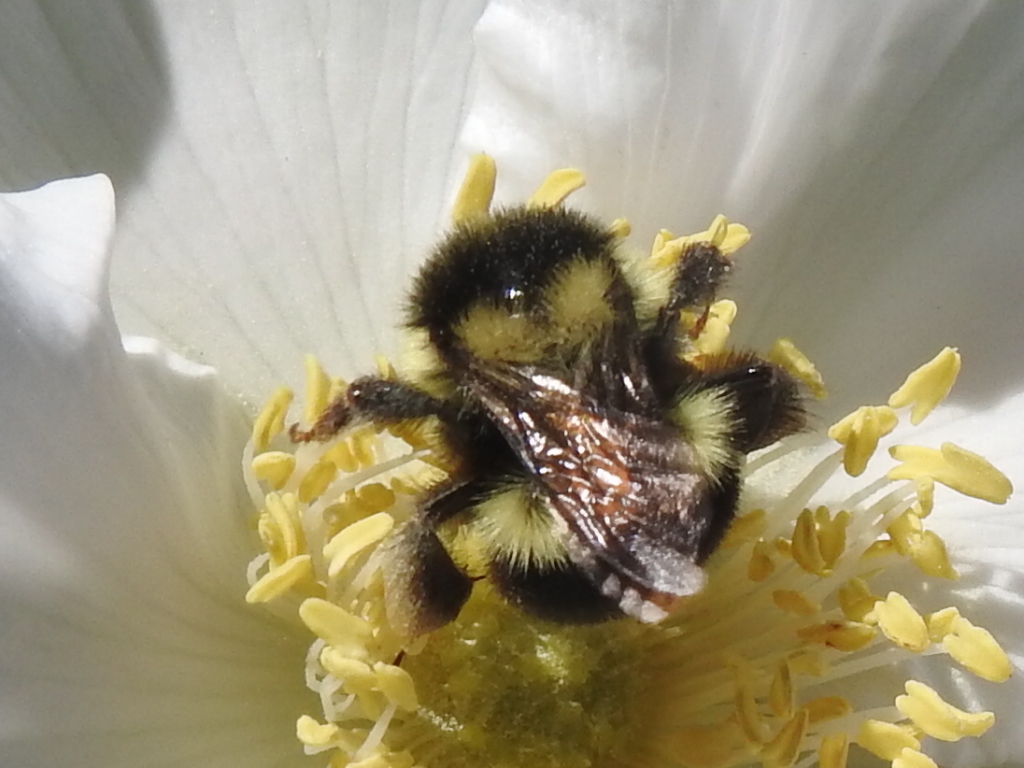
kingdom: Animalia
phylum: Arthropoda
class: Insecta
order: Hymenoptera
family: Apidae
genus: Bombus
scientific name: Bombus melanopygus
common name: Black tail bumble bee
